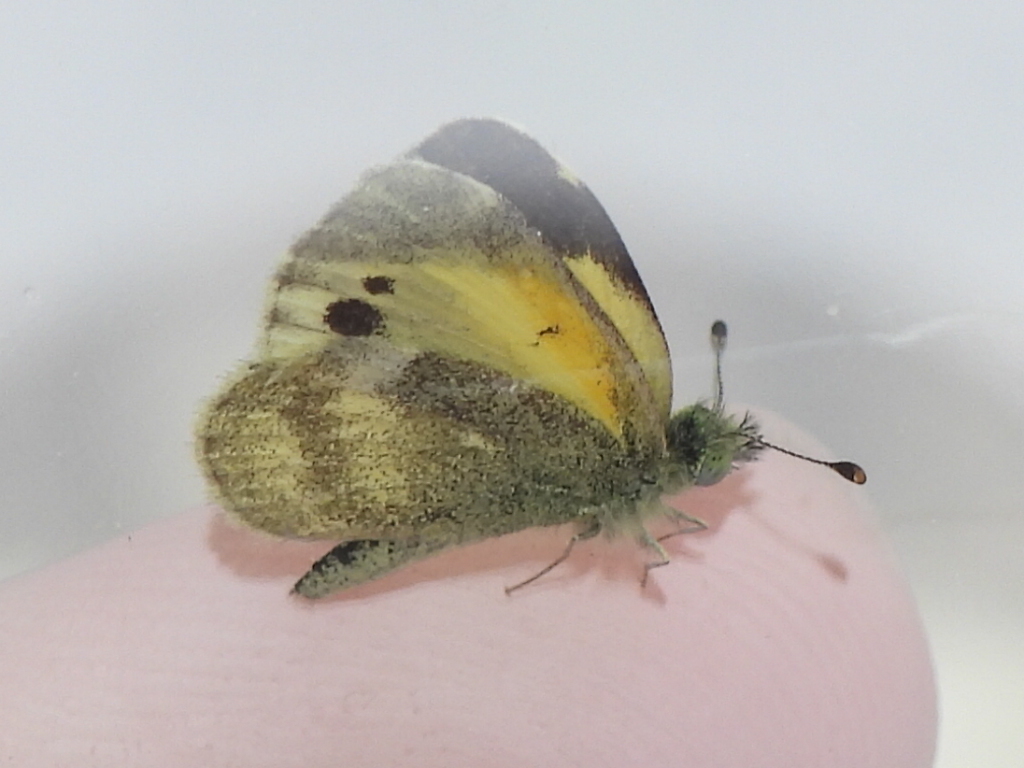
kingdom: Animalia
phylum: Arthropoda
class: Insecta
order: Lepidoptera
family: Pieridae
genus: Nathalis
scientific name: Nathalis iole
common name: Dainty sulphur
